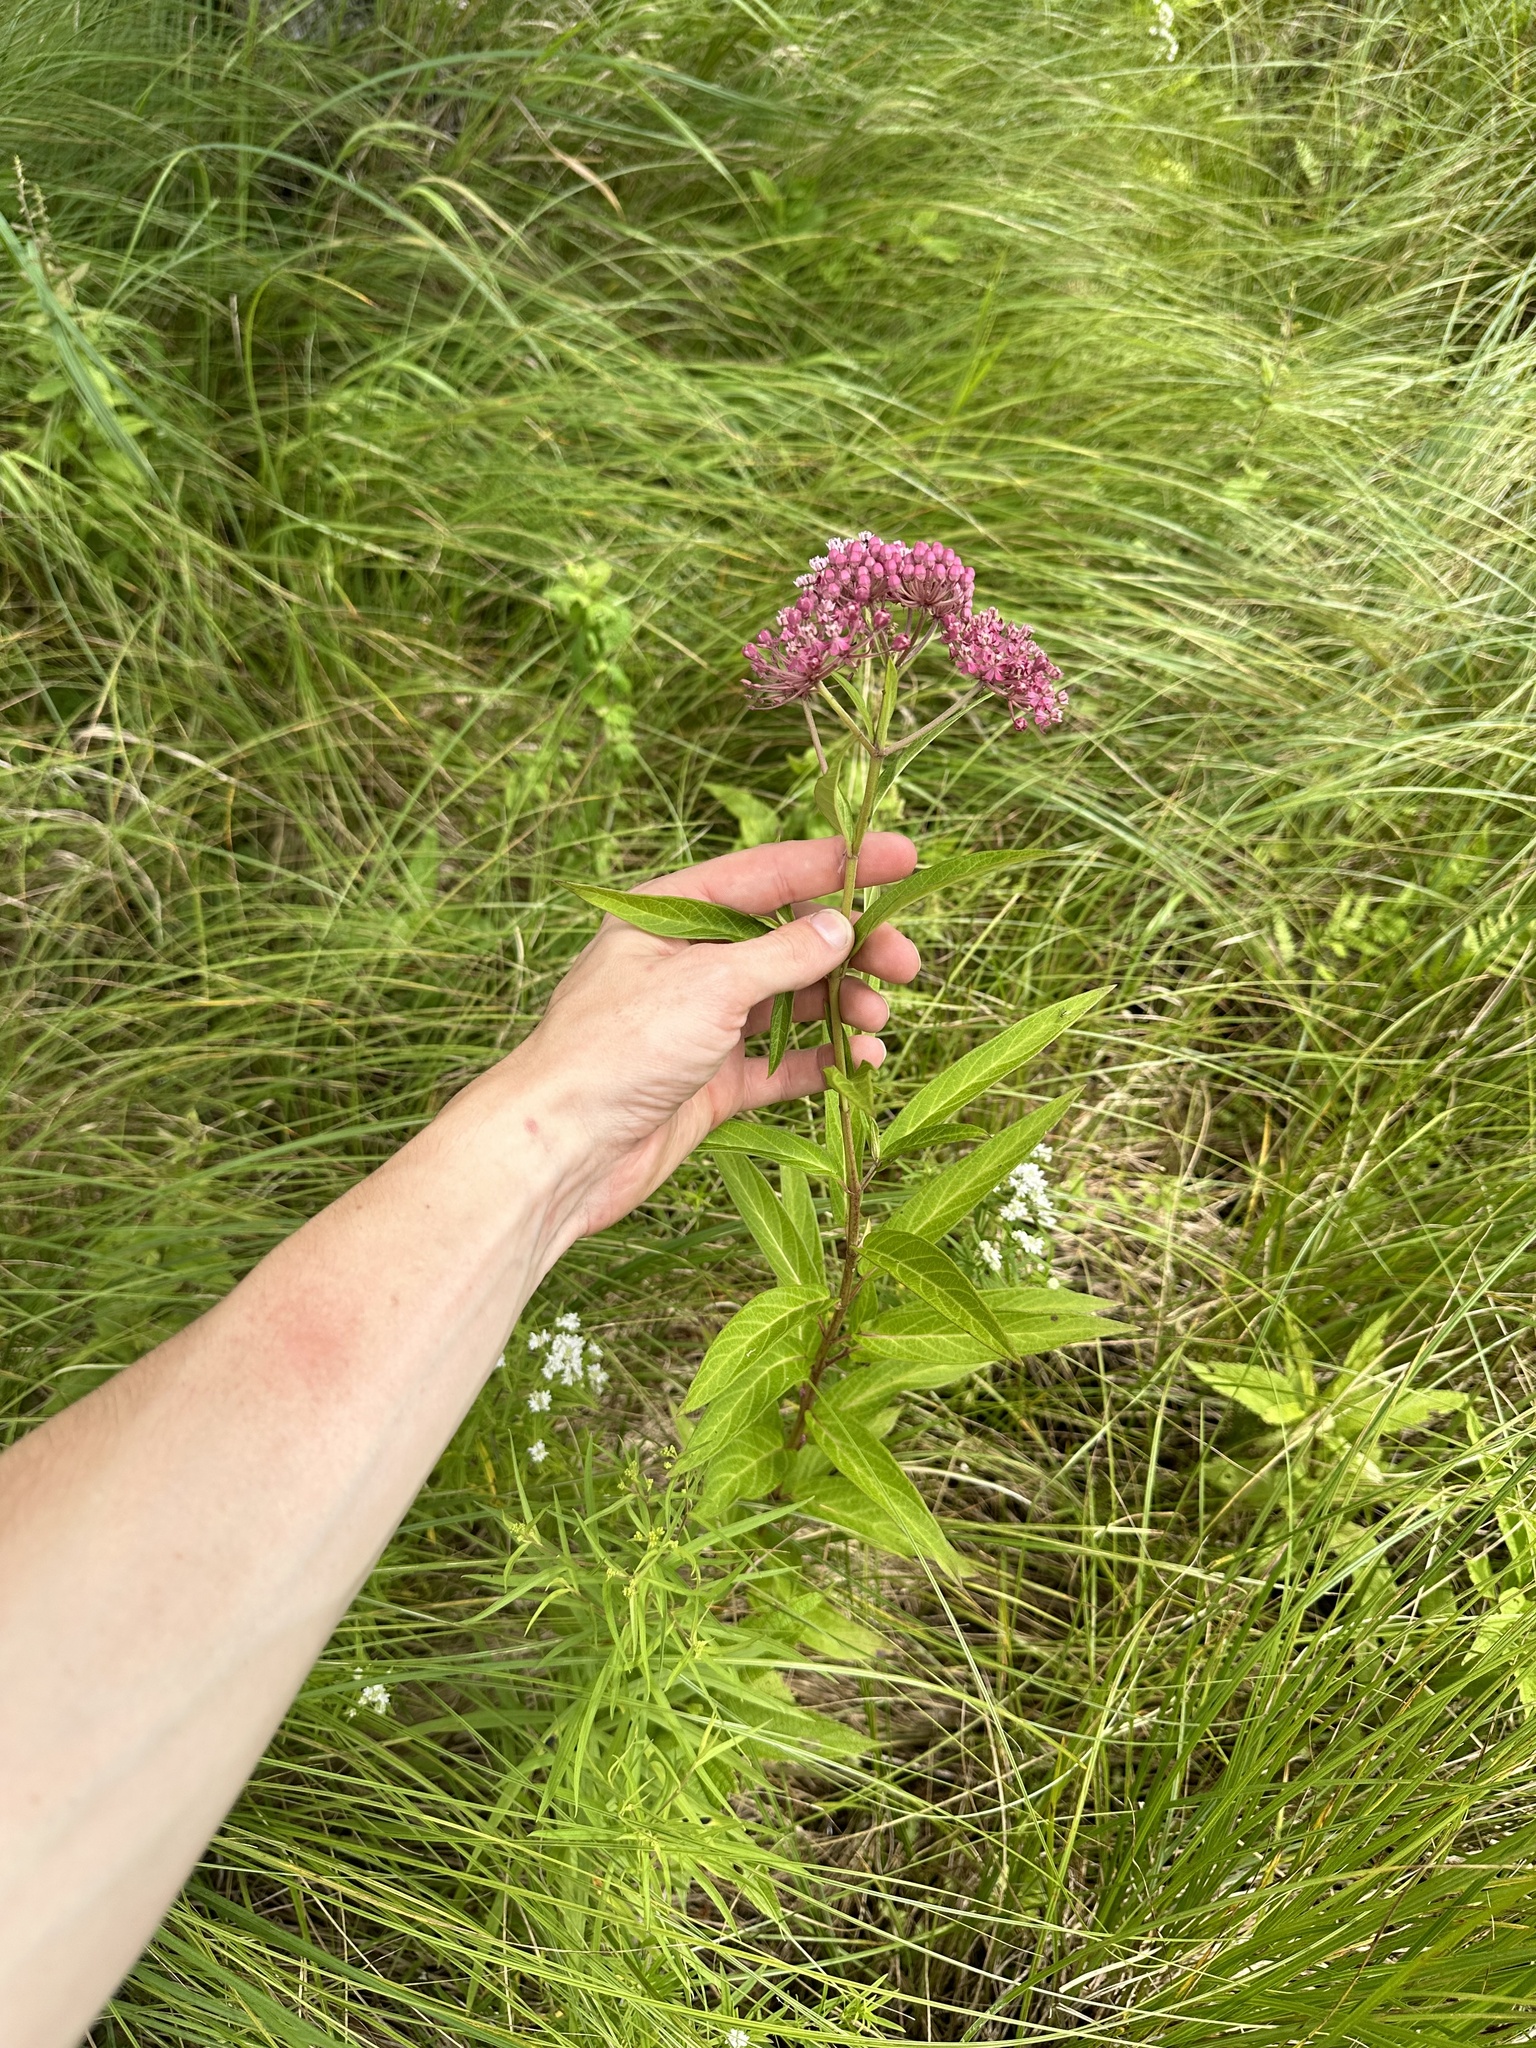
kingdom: Plantae
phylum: Tracheophyta
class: Magnoliopsida
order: Gentianales
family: Apocynaceae
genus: Asclepias
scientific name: Asclepias incarnata
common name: Swamp milkweed
